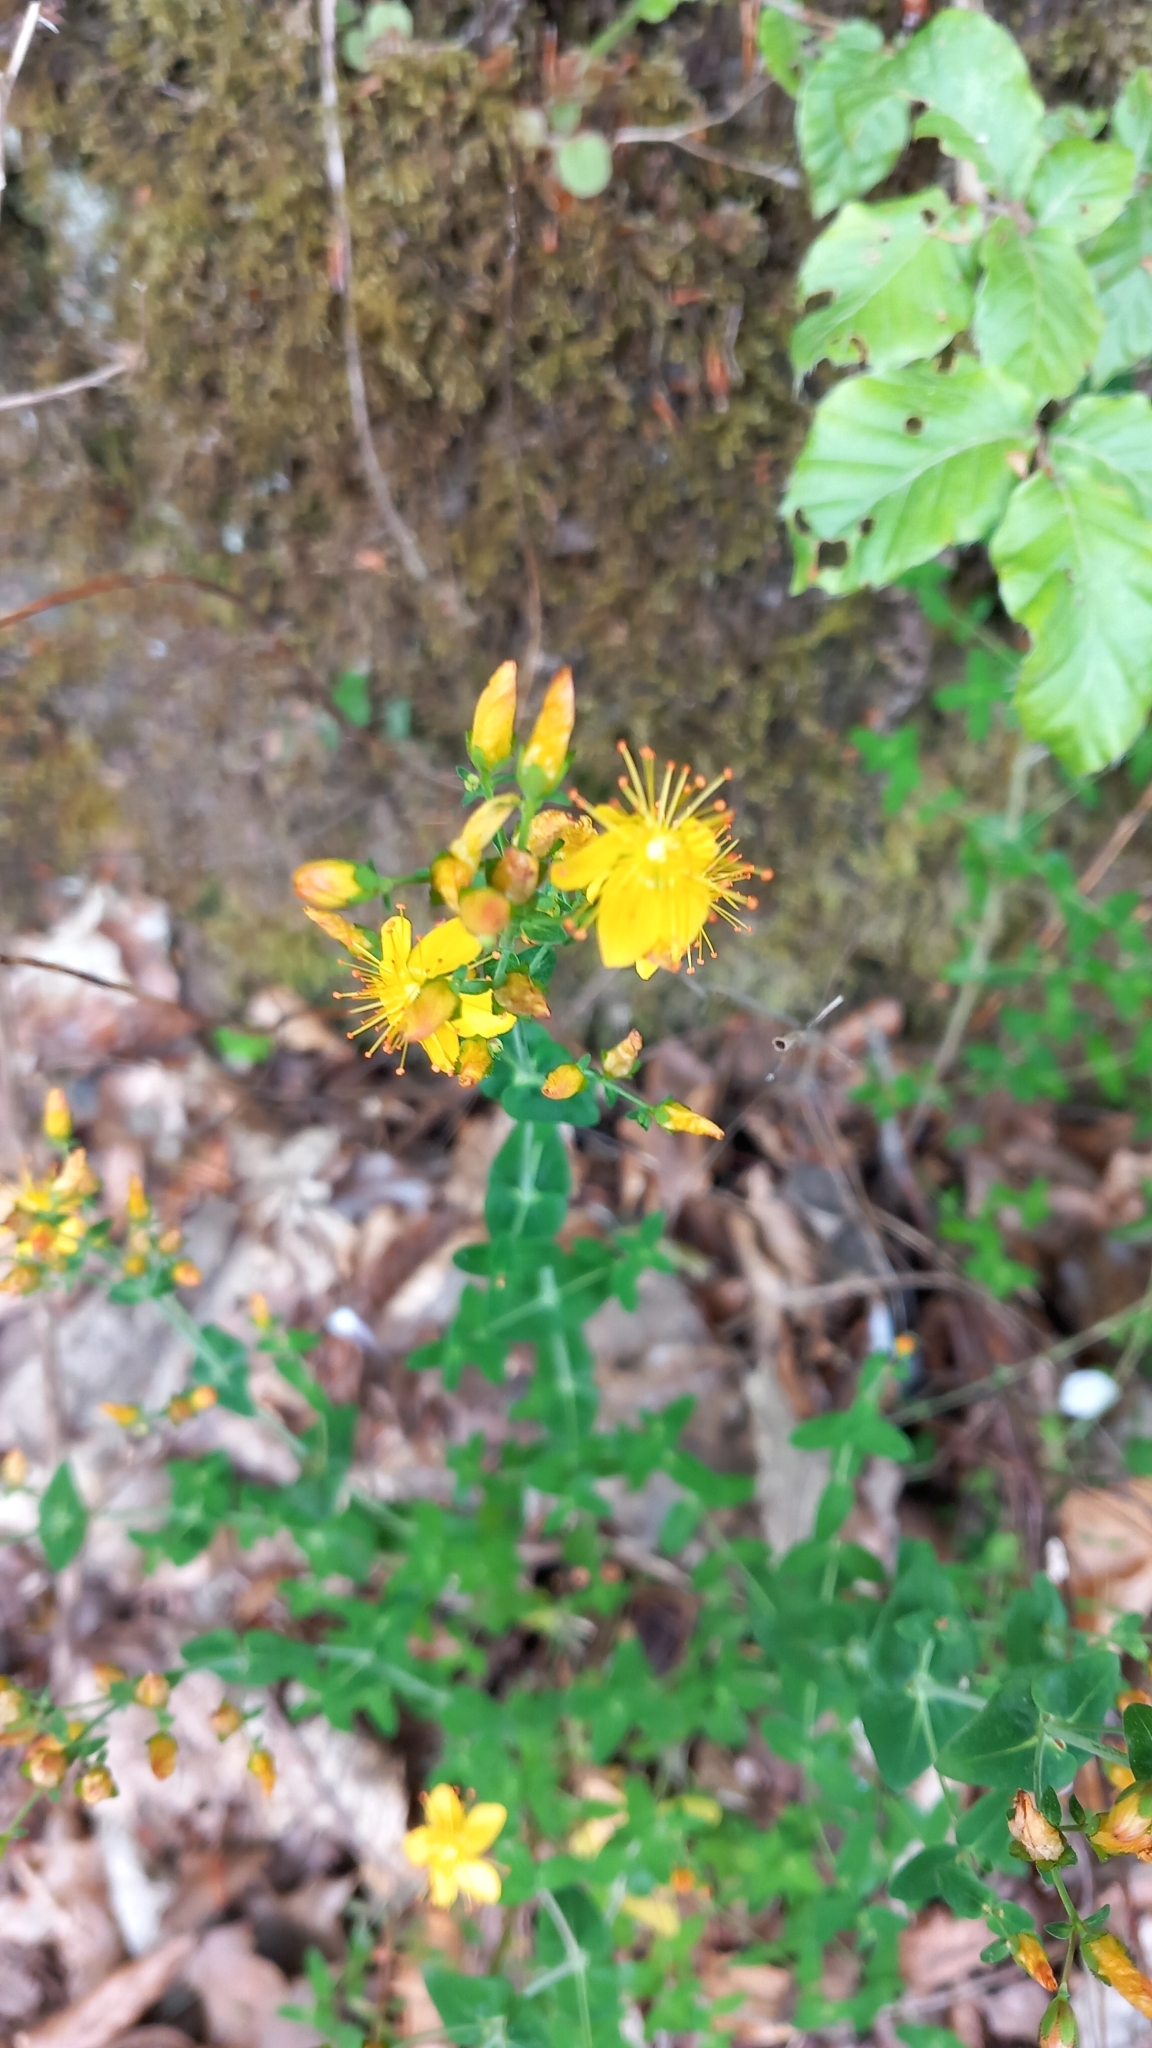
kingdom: Plantae
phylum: Tracheophyta
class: Magnoliopsida
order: Malpighiales
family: Hypericaceae
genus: Hypericum
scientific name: Hypericum pulchrum
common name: Slender st. john's-wort
